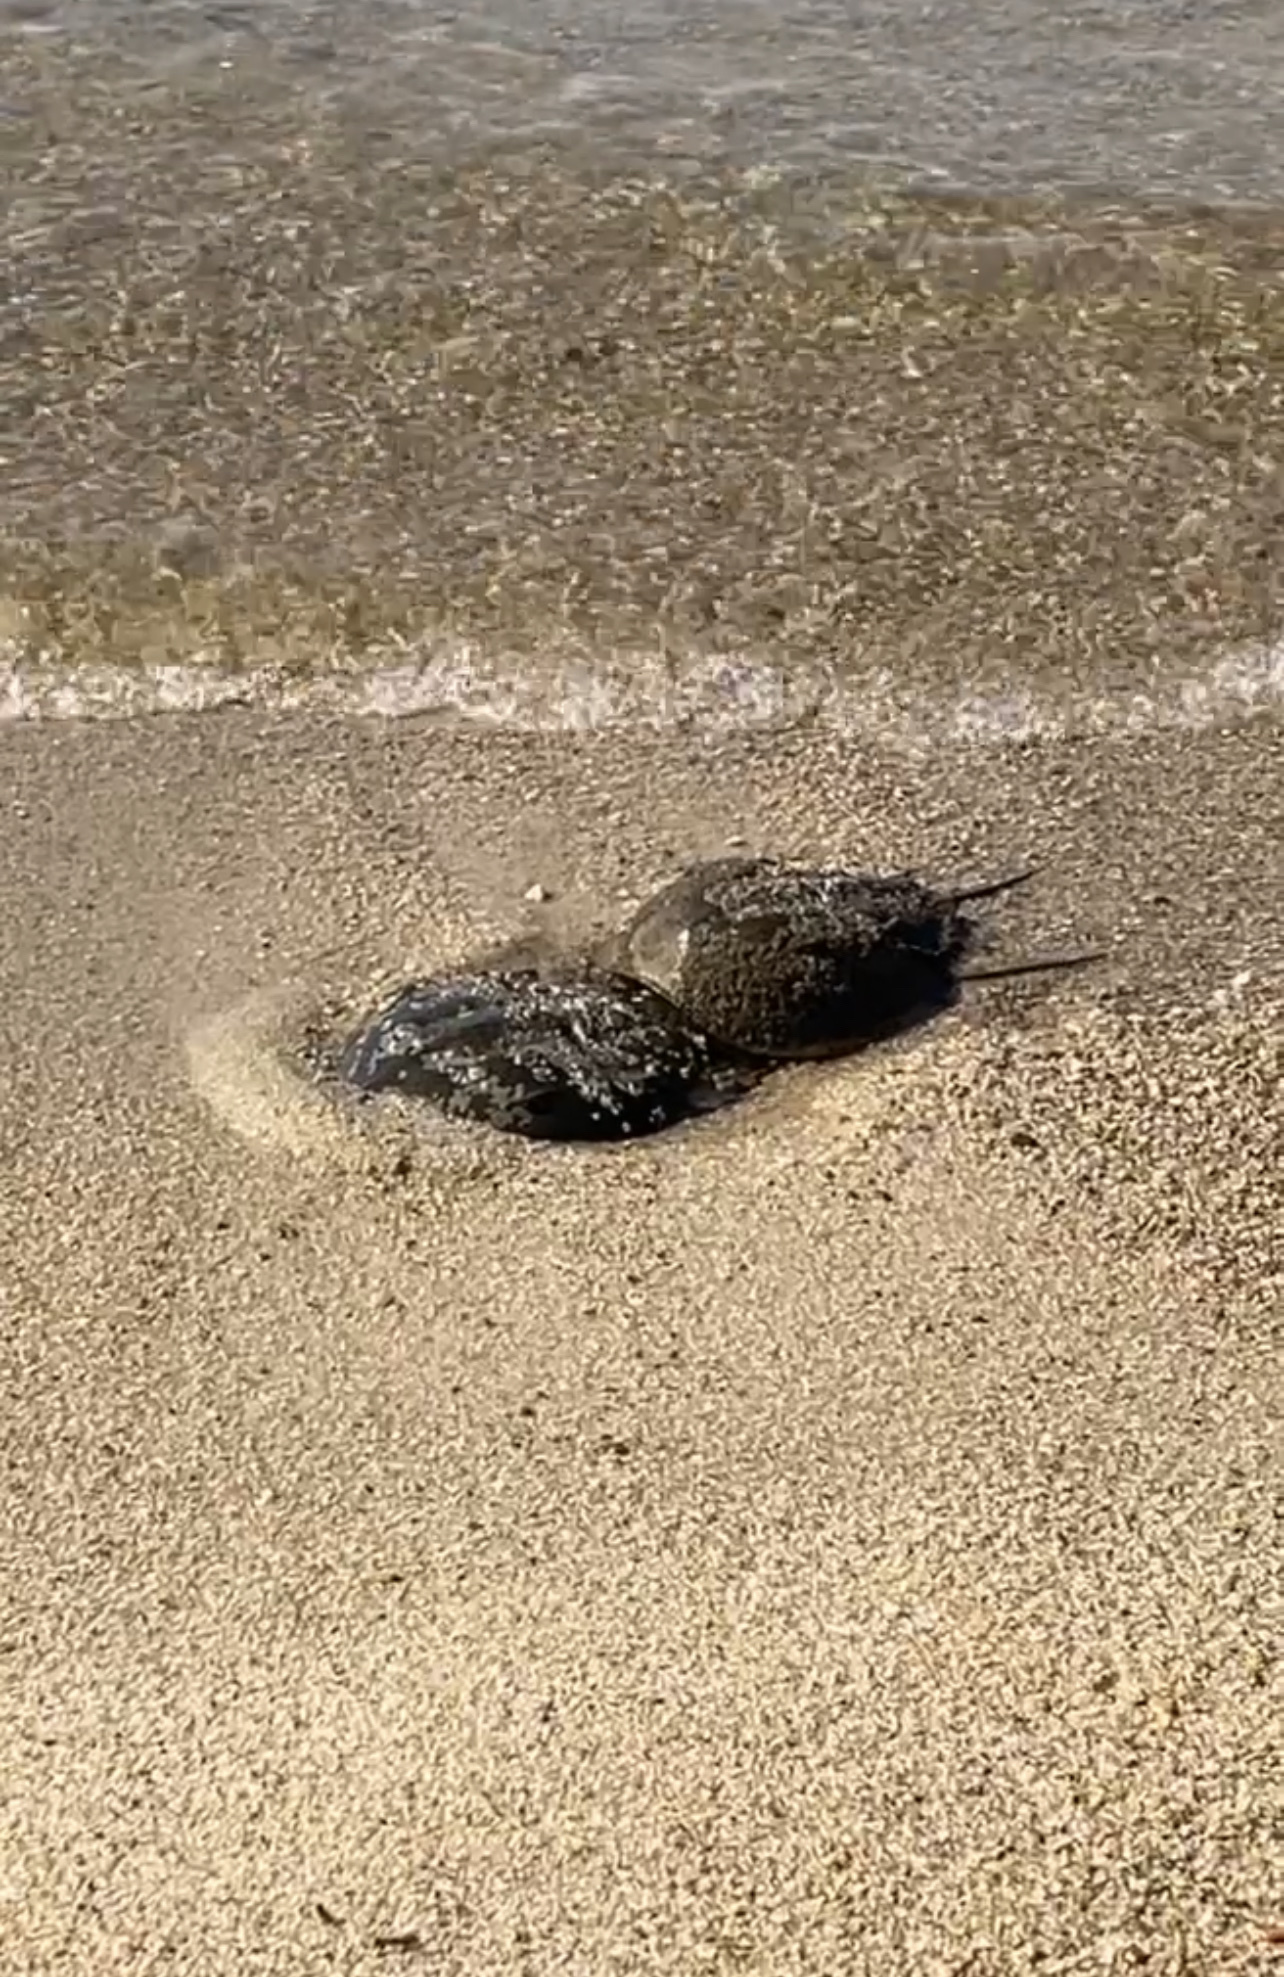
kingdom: Animalia
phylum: Arthropoda
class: Merostomata
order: Xiphosurida
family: Limulidae
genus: Limulus
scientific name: Limulus polyphemus
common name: Horseshoe crab
